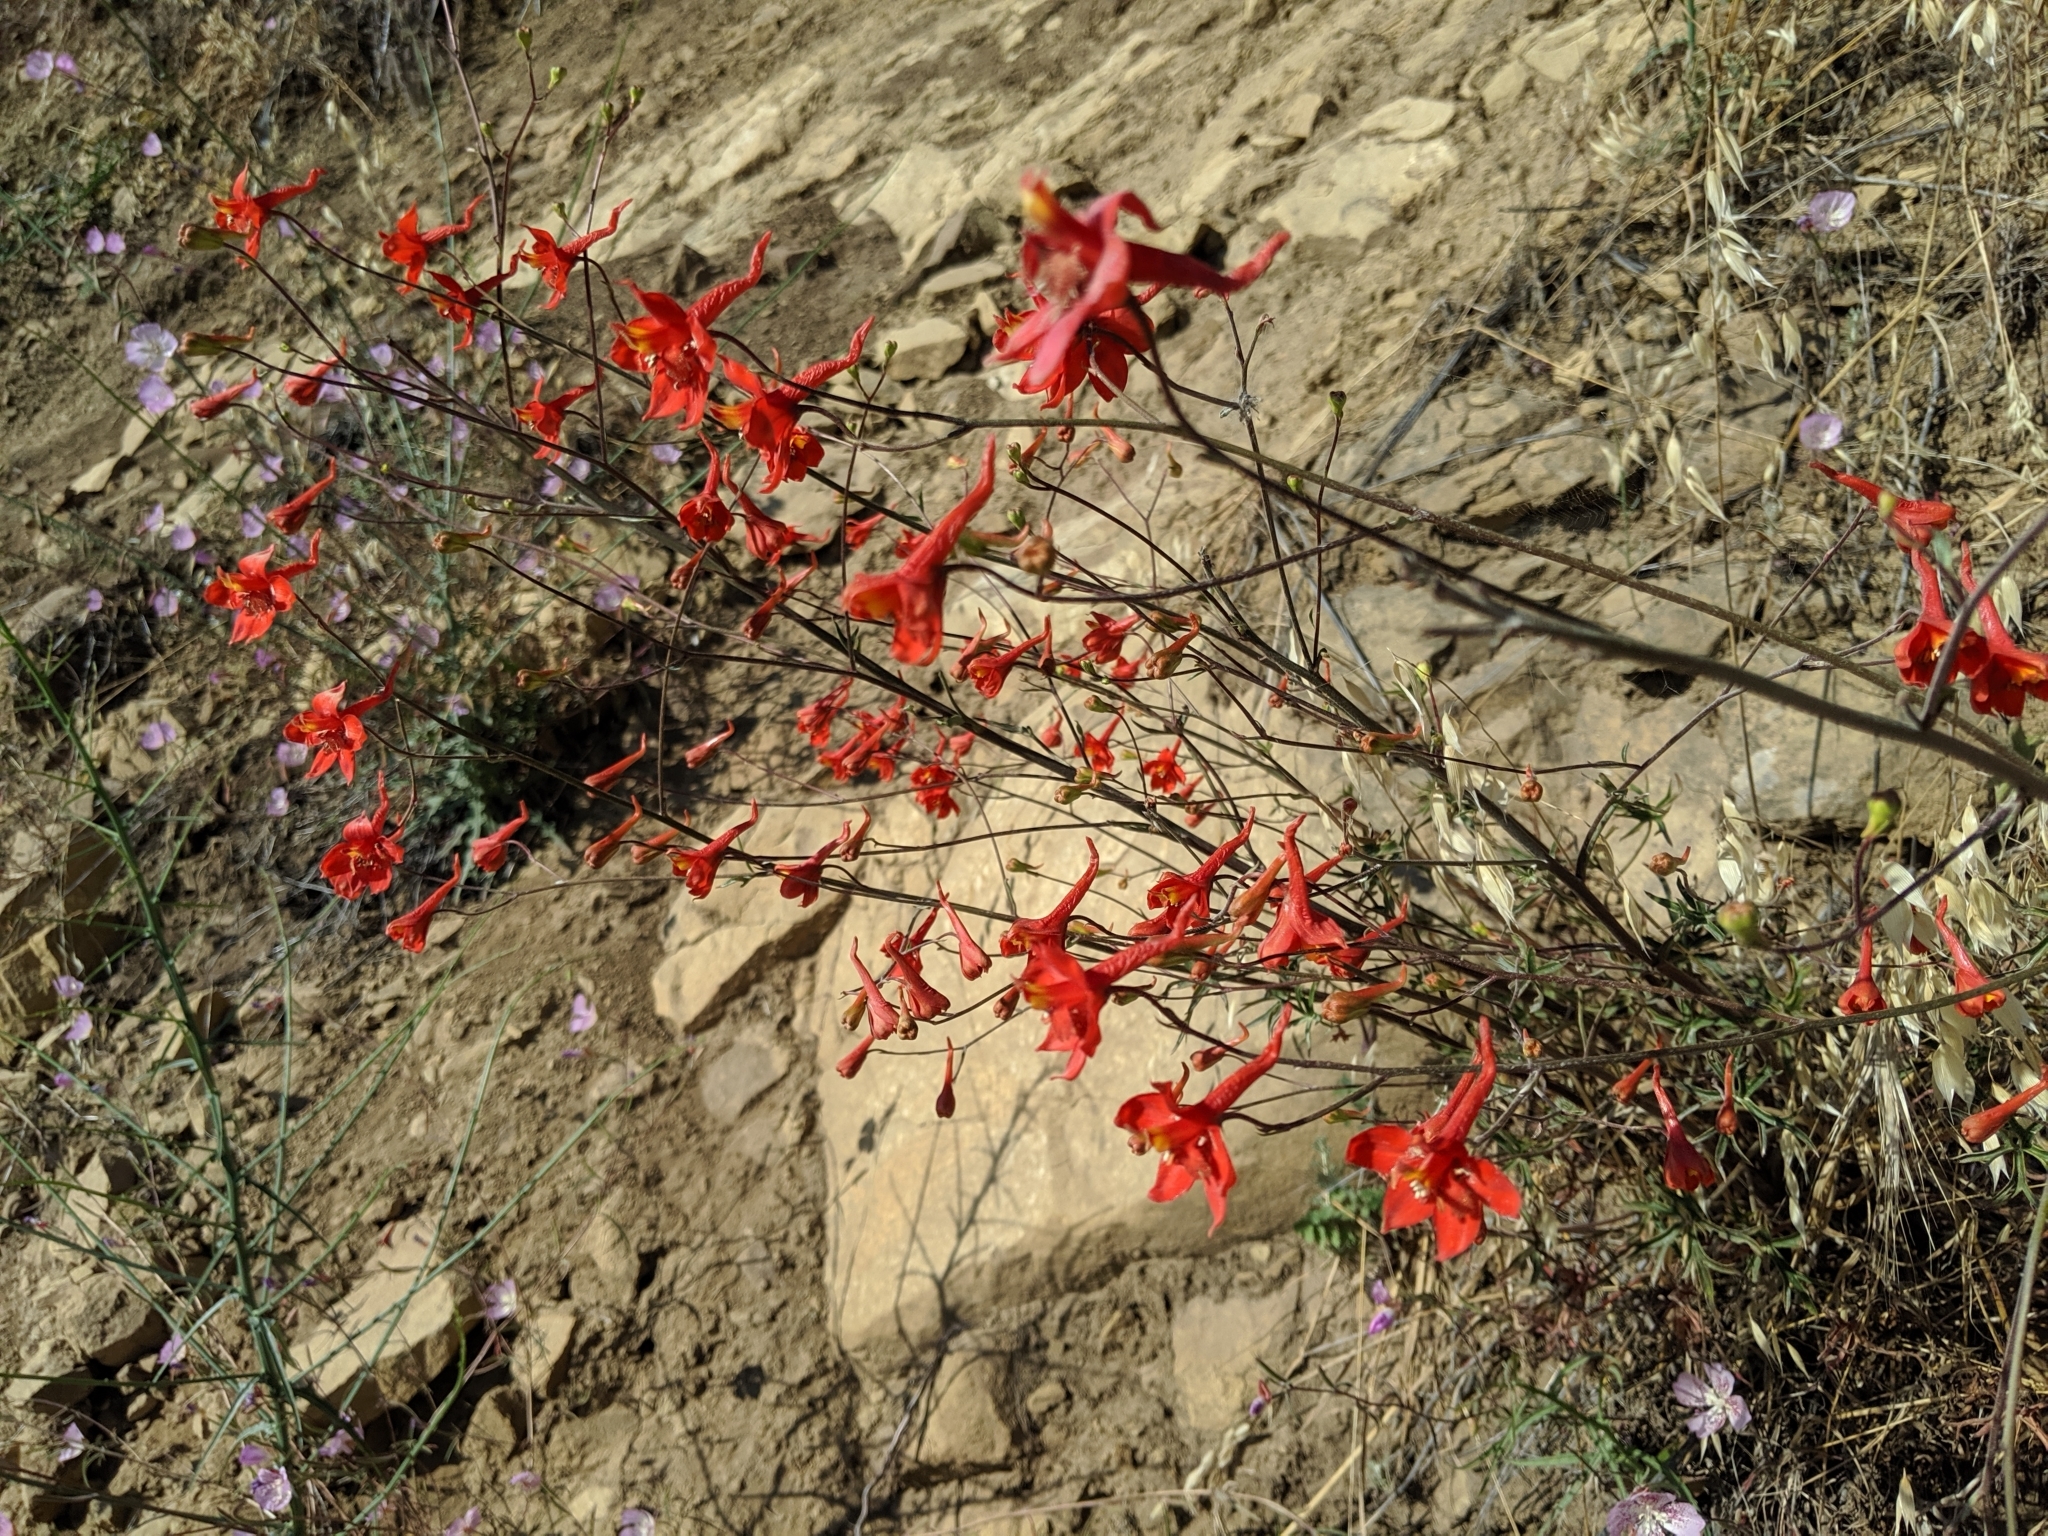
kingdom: Plantae
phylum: Tracheophyta
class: Magnoliopsida
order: Ranunculales
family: Ranunculaceae
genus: Delphinium
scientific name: Delphinium cardinale
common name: Scarlet larkspur
